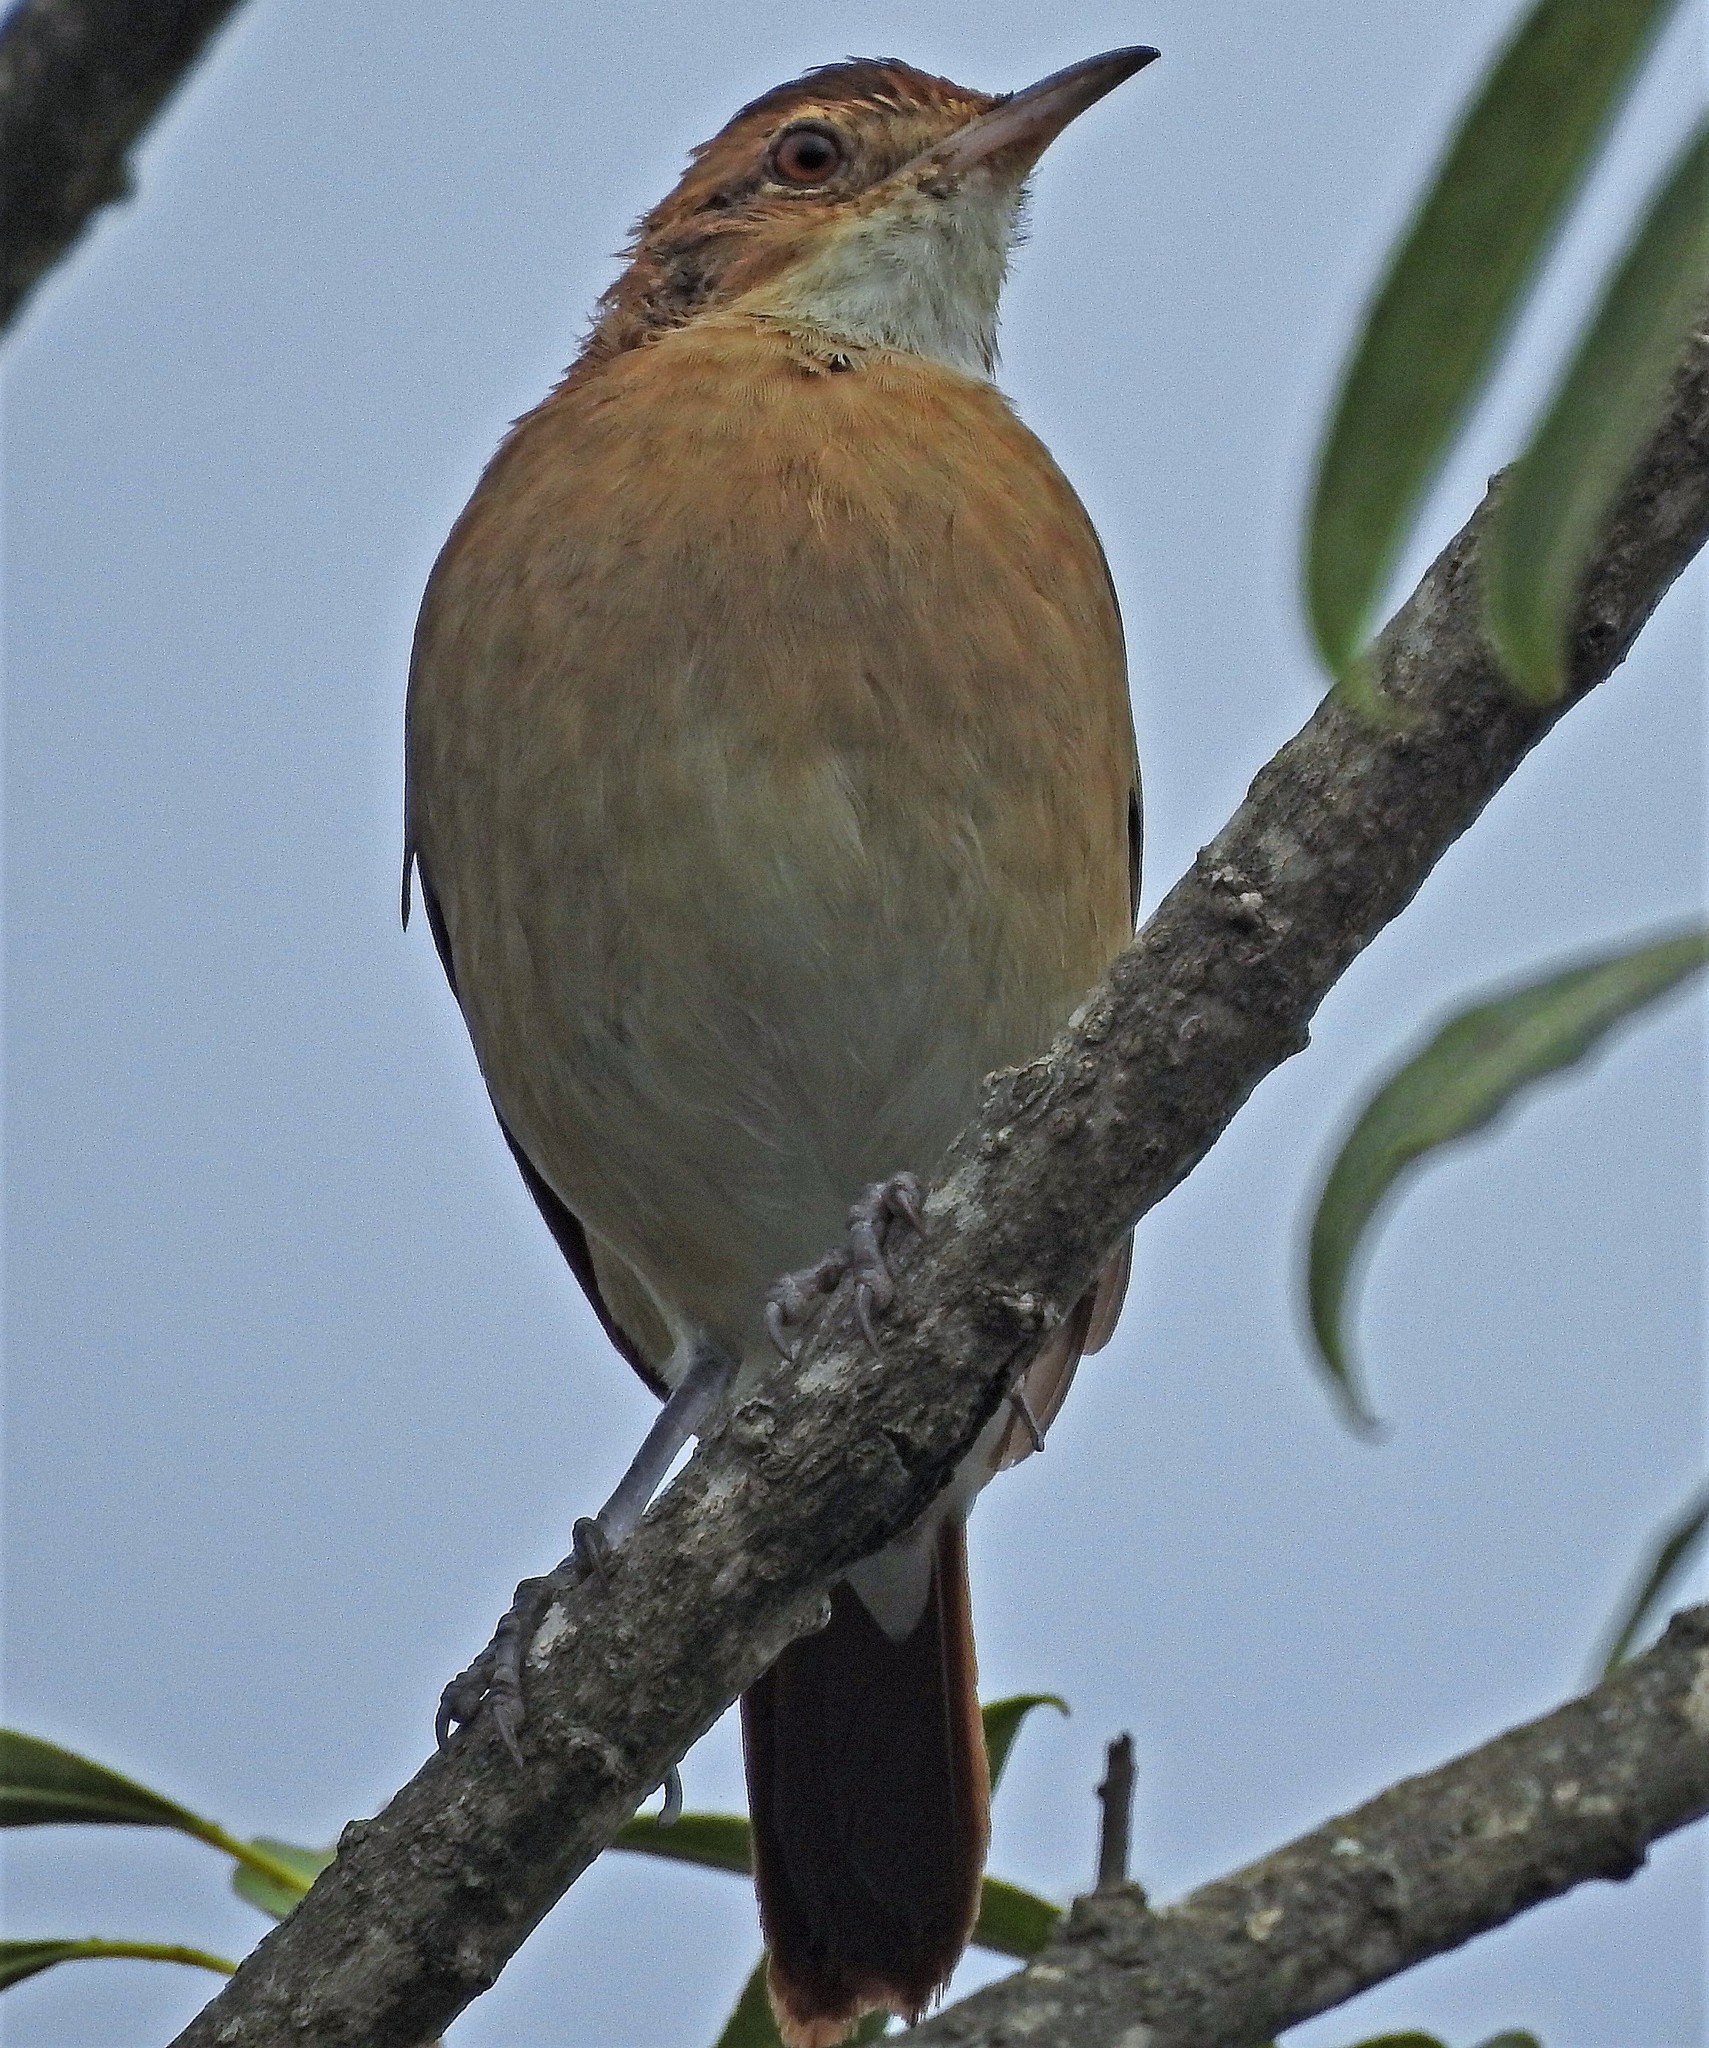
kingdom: Animalia
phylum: Chordata
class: Aves
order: Passeriformes
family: Furnariidae
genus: Furnarius
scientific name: Furnarius rufus
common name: Rufous hornero
